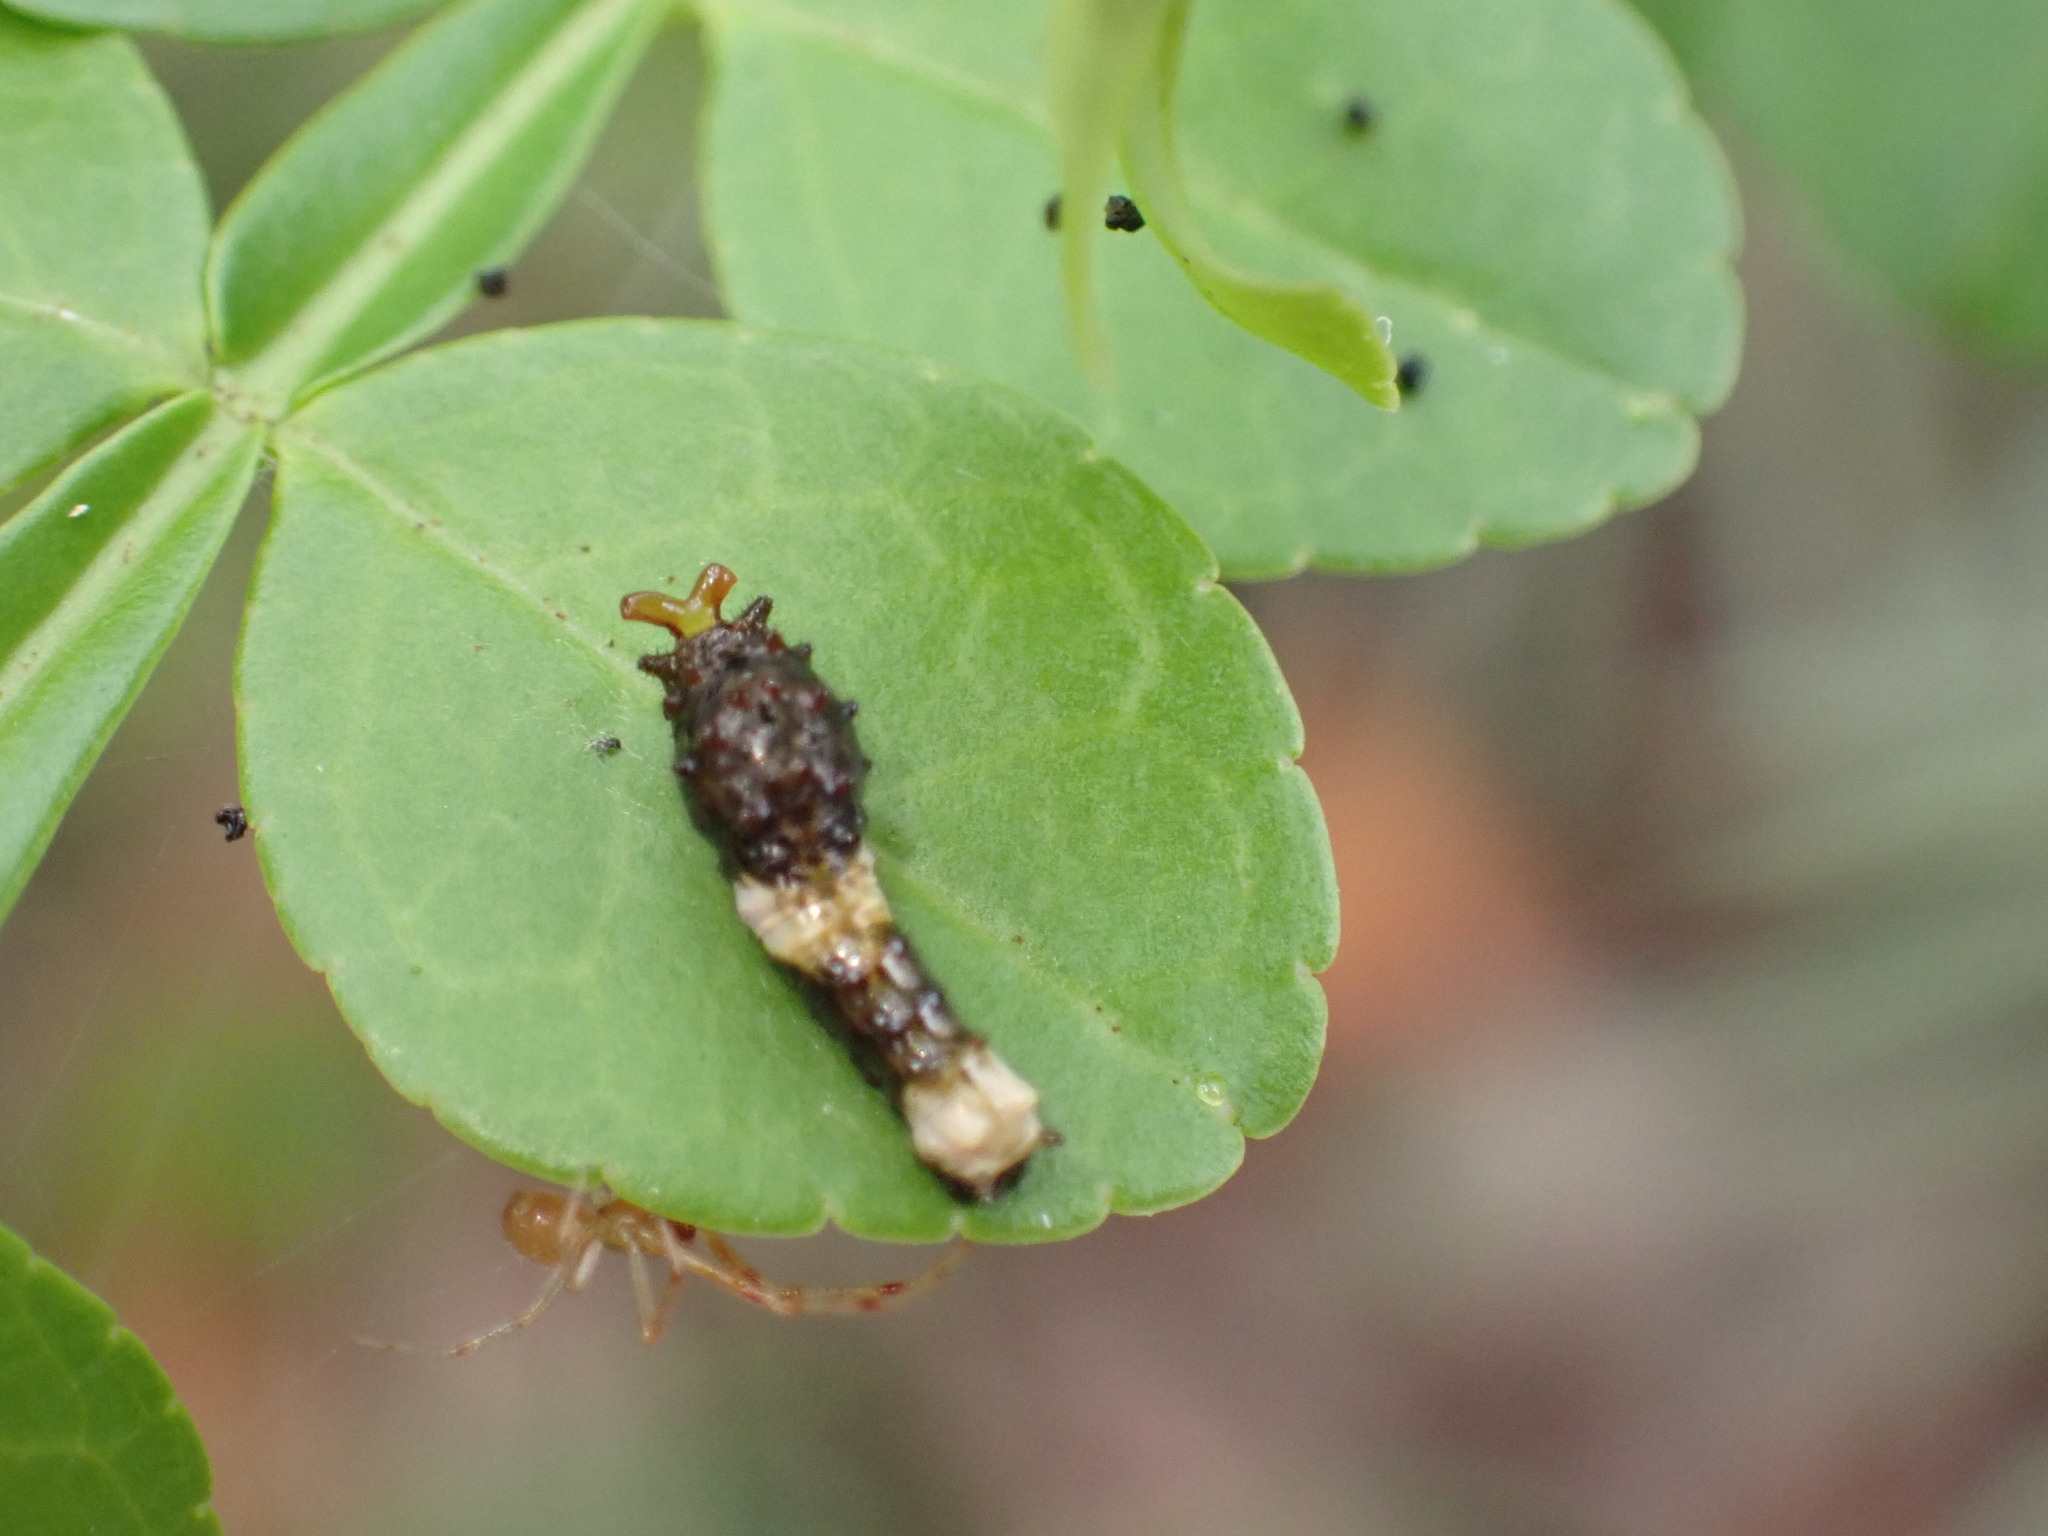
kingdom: Animalia
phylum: Arthropoda
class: Insecta
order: Lepidoptera
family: Papilionidae
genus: Papilio
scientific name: Papilio cresphontes
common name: Giant swallowtail
